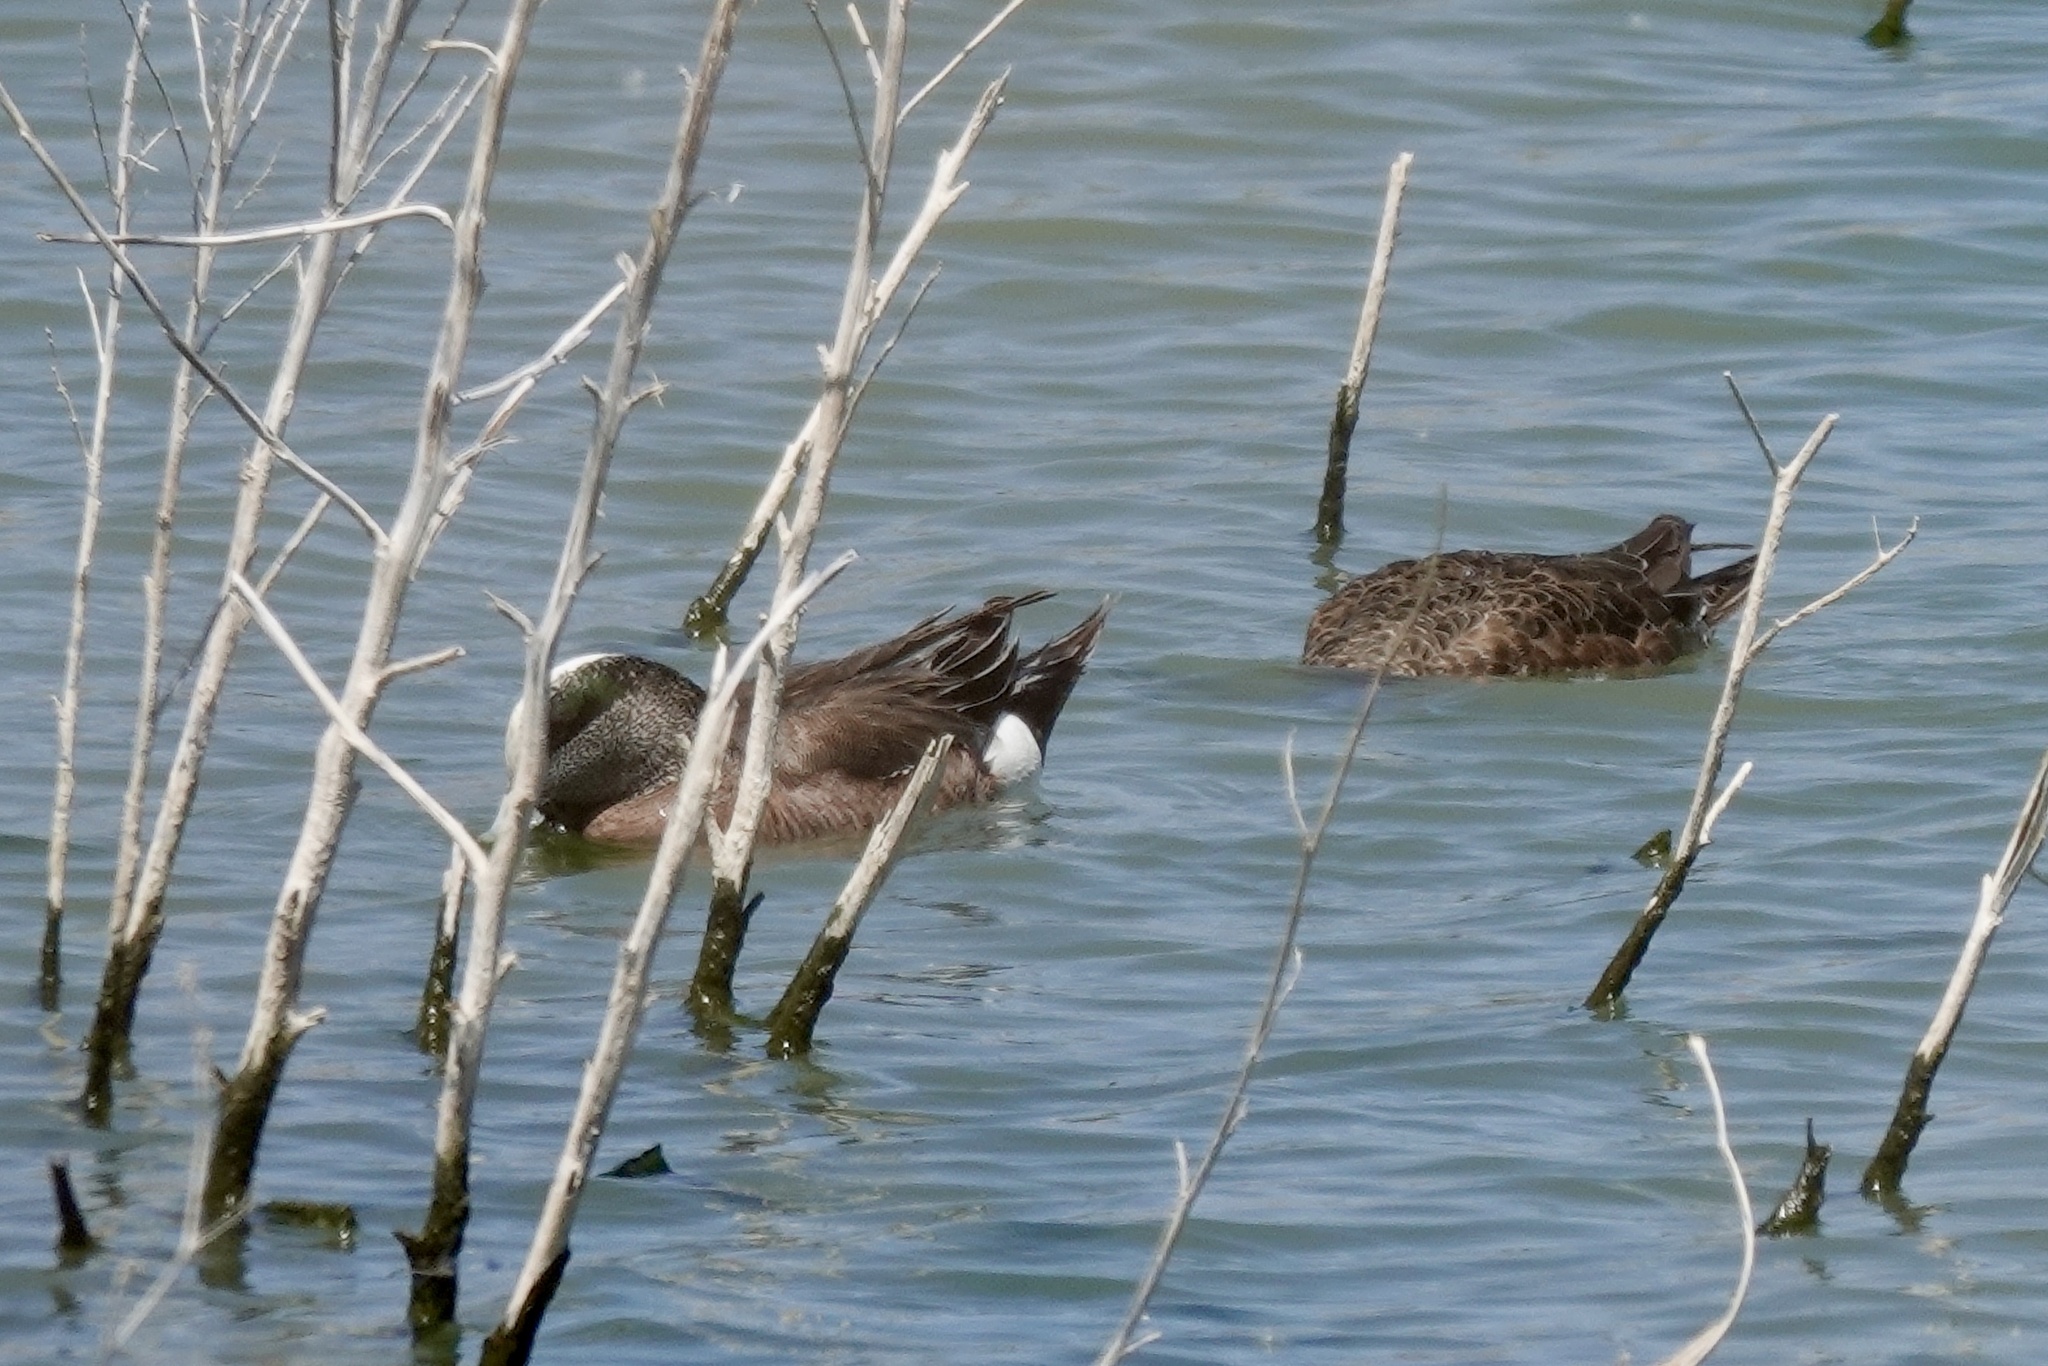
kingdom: Animalia
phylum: Chordata
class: Aves
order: Anseriformes
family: Anatidae
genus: Mareca
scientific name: Mareca americana
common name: American wigeon
